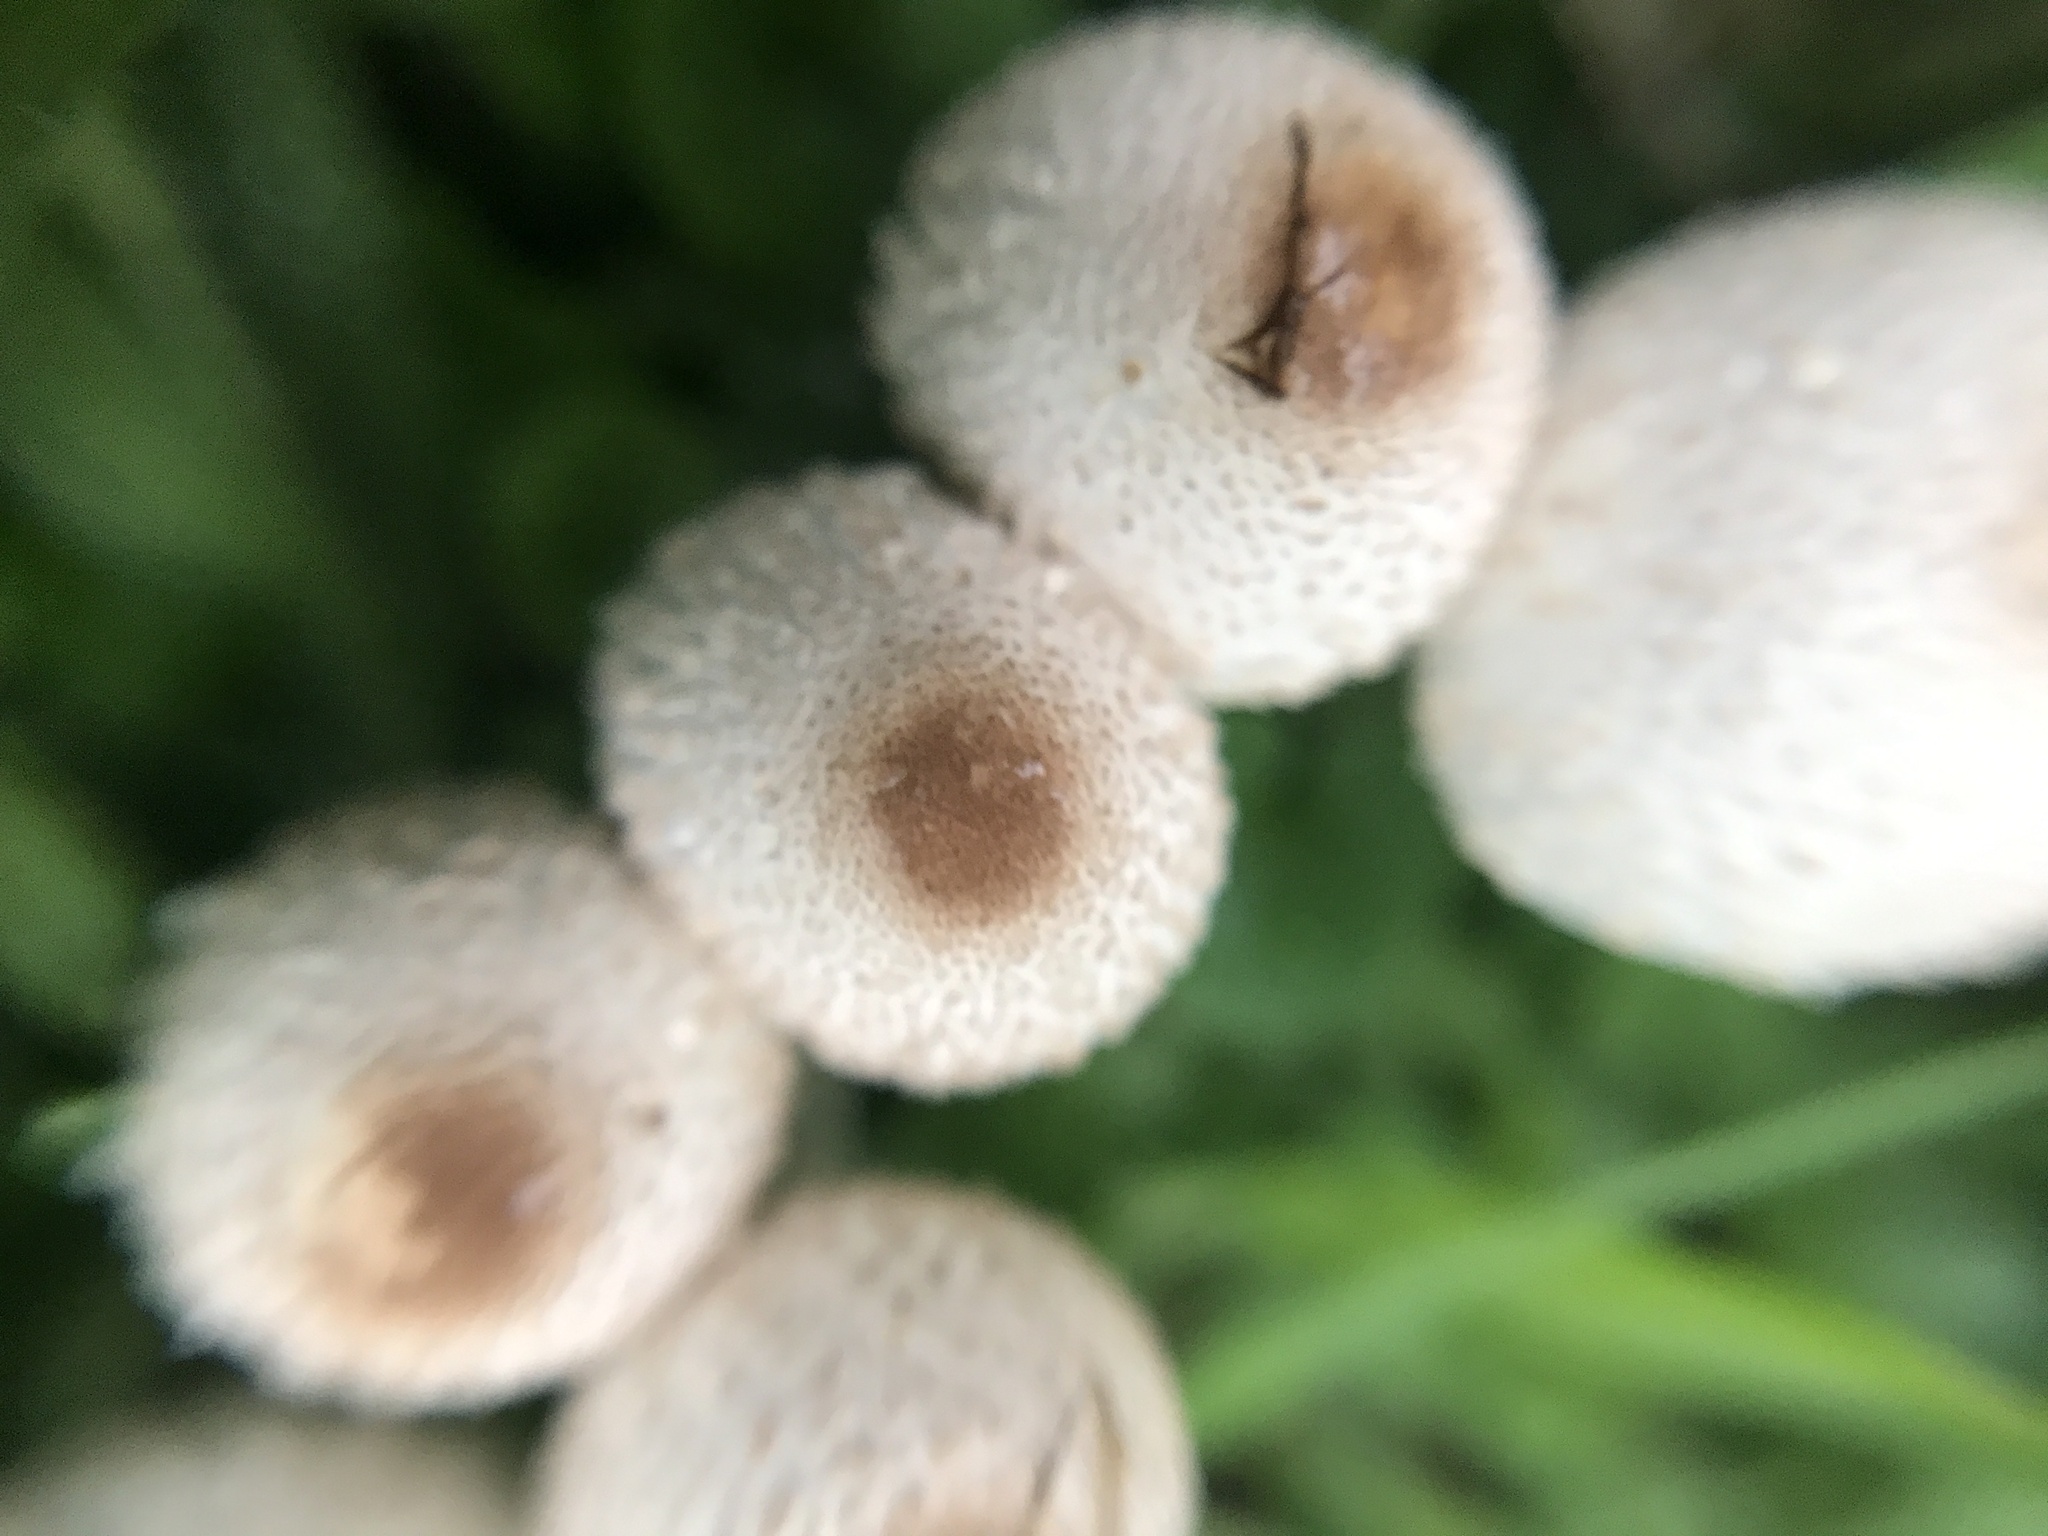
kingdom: Fungi
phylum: Basidiomycota
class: Agaricomycetes
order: Agaricales
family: Agaricaceae
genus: Leucocoprinus
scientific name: Leucocoprinus cepistipes
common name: Onion-stalk parasol
